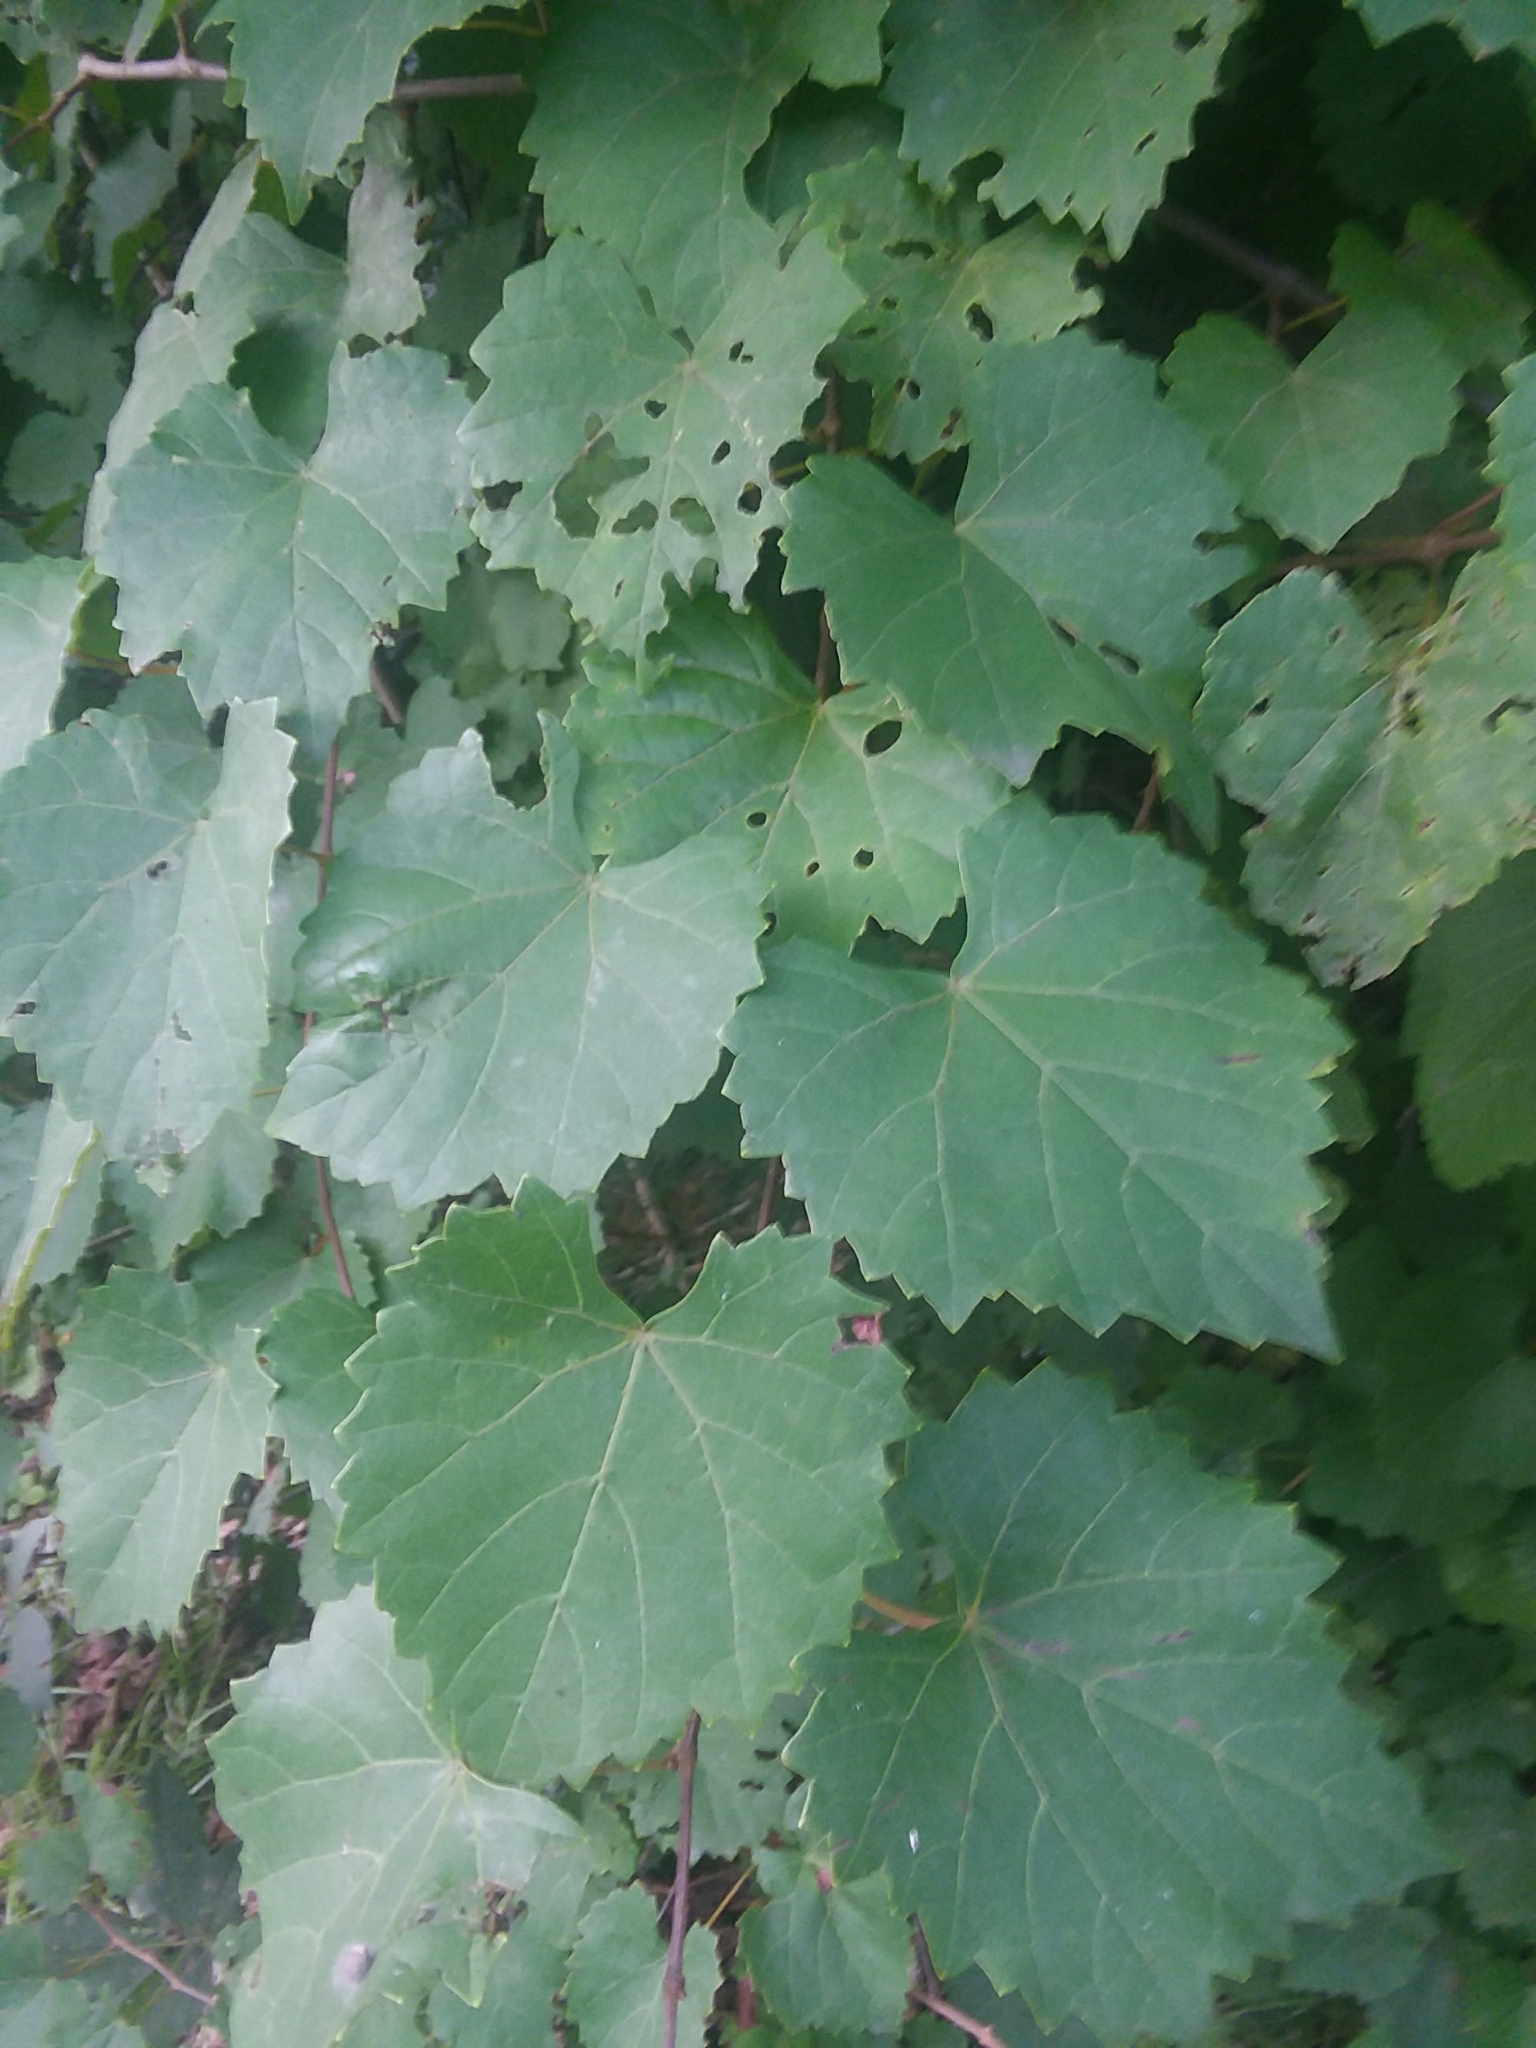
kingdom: Plantae
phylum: Tracheophyta
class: Magnoliopsida
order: Vitales
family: Vitaceae
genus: Vitis
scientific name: Vitis rotundifolia
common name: Muscadine grape
